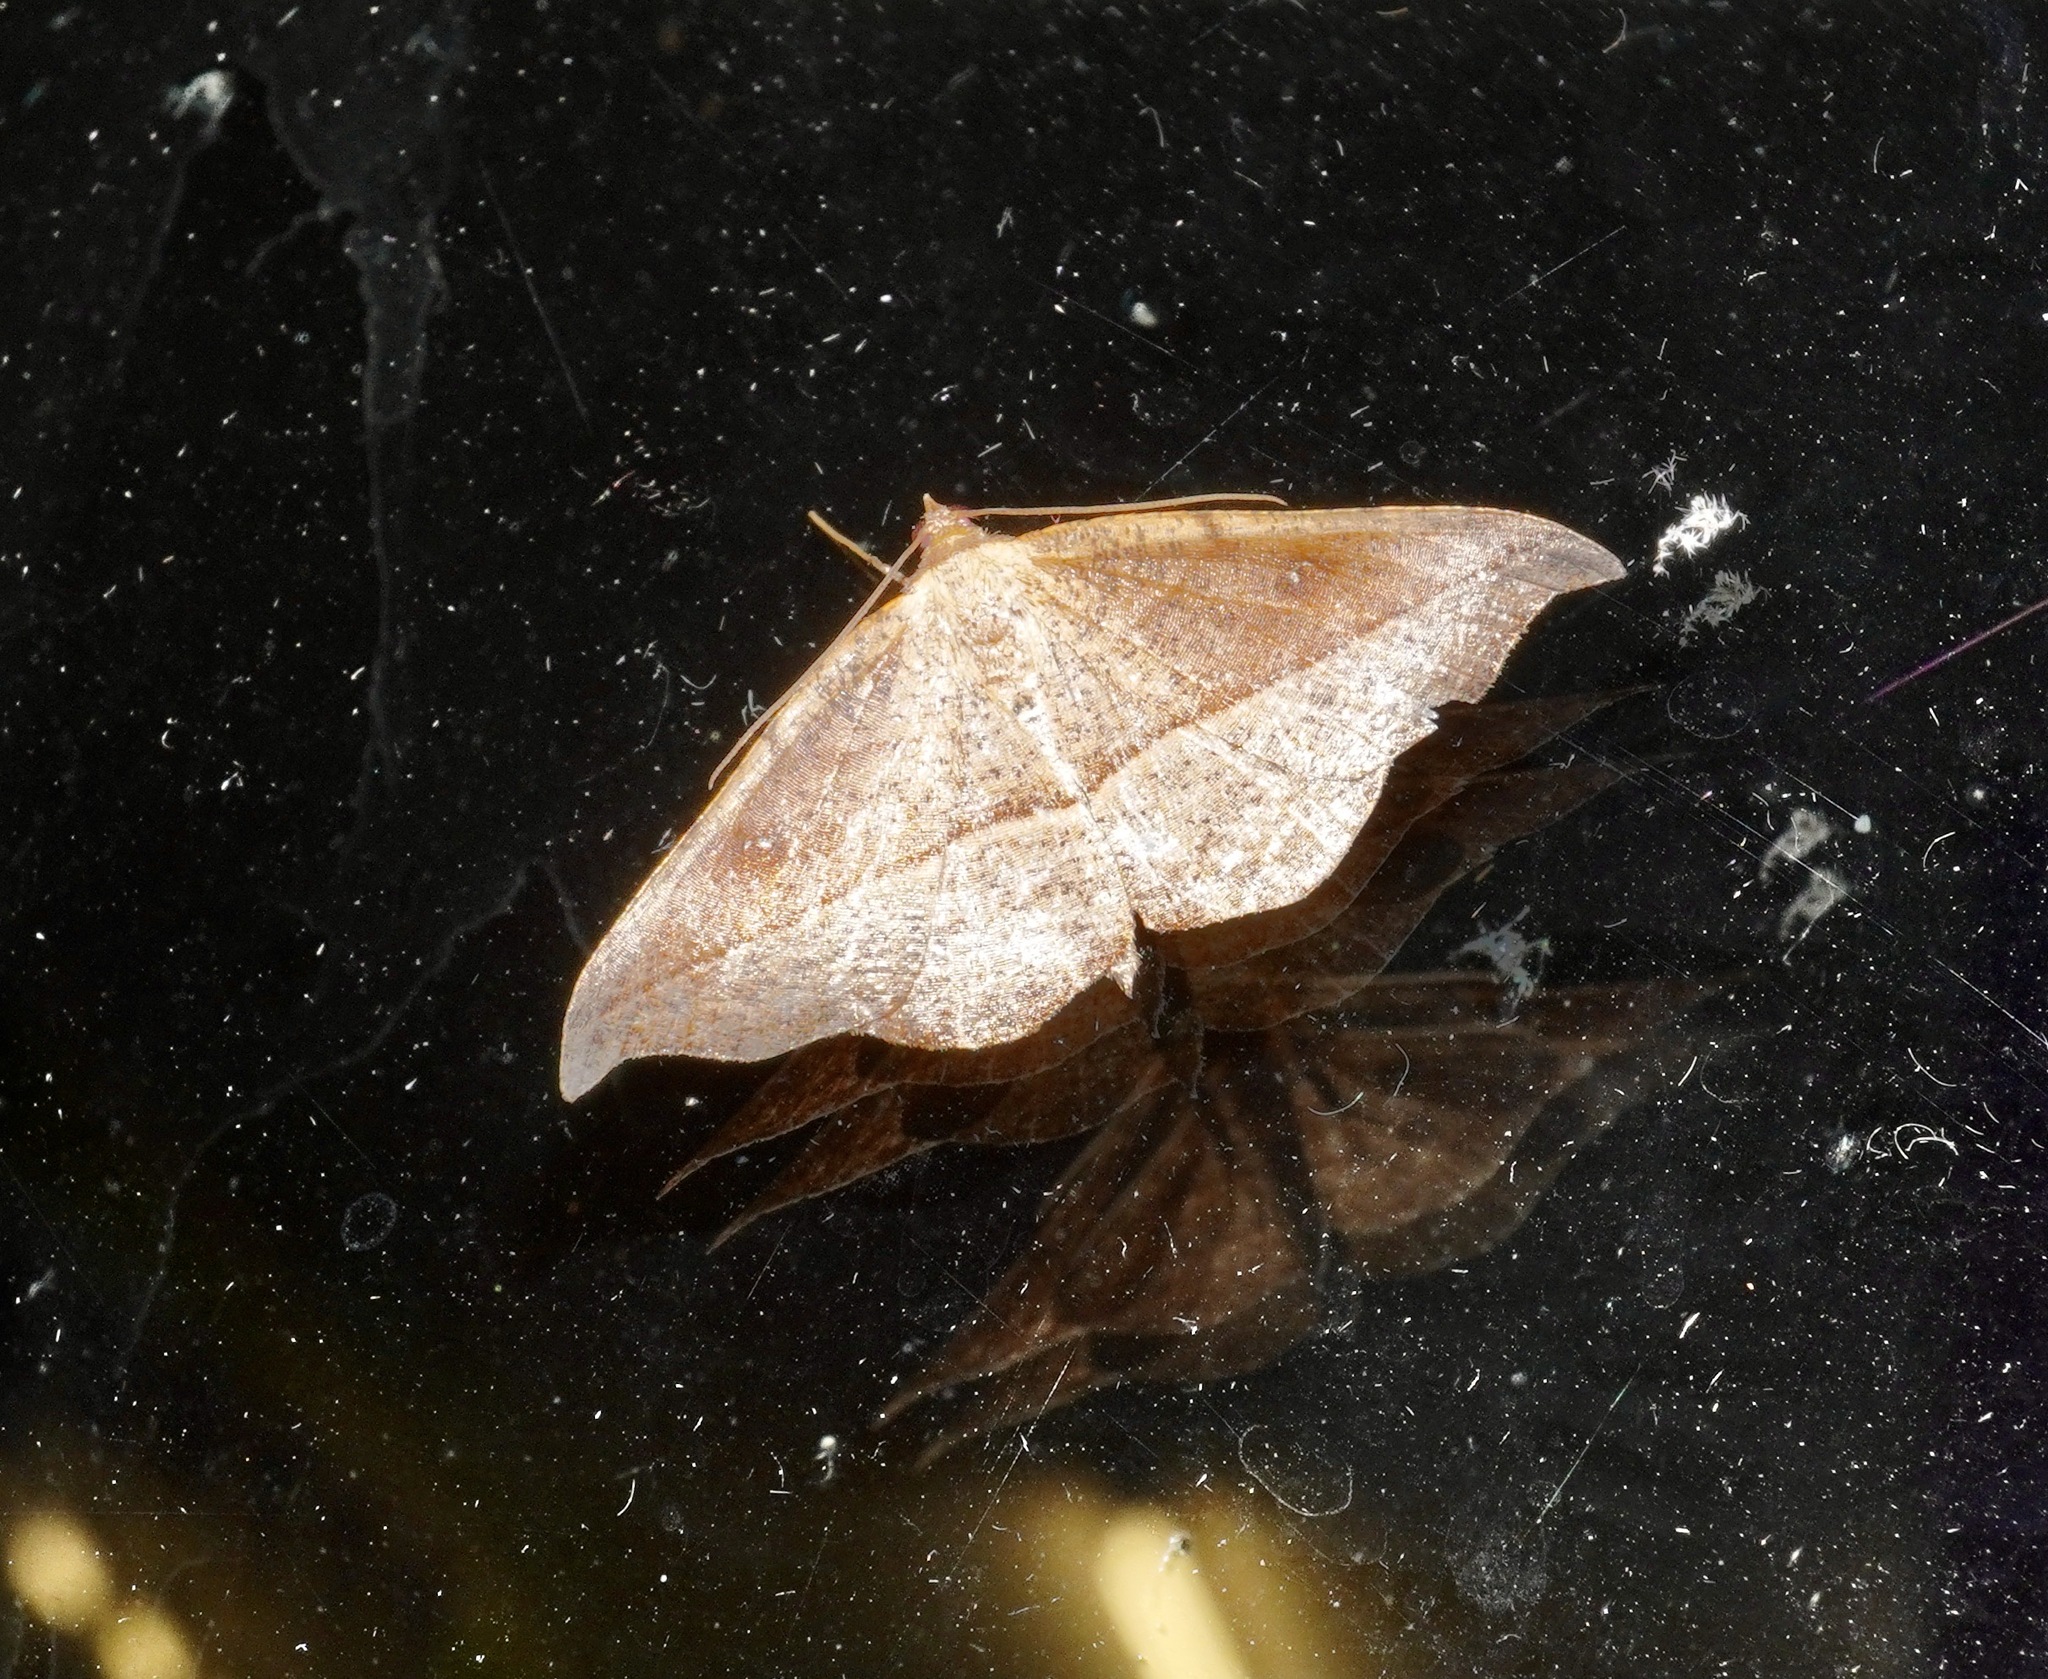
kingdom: Animalia
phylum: Arthropoda
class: Insecta
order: Lepidoptera
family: Geometridae
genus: Sarisa
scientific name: Sarisa muriferata
